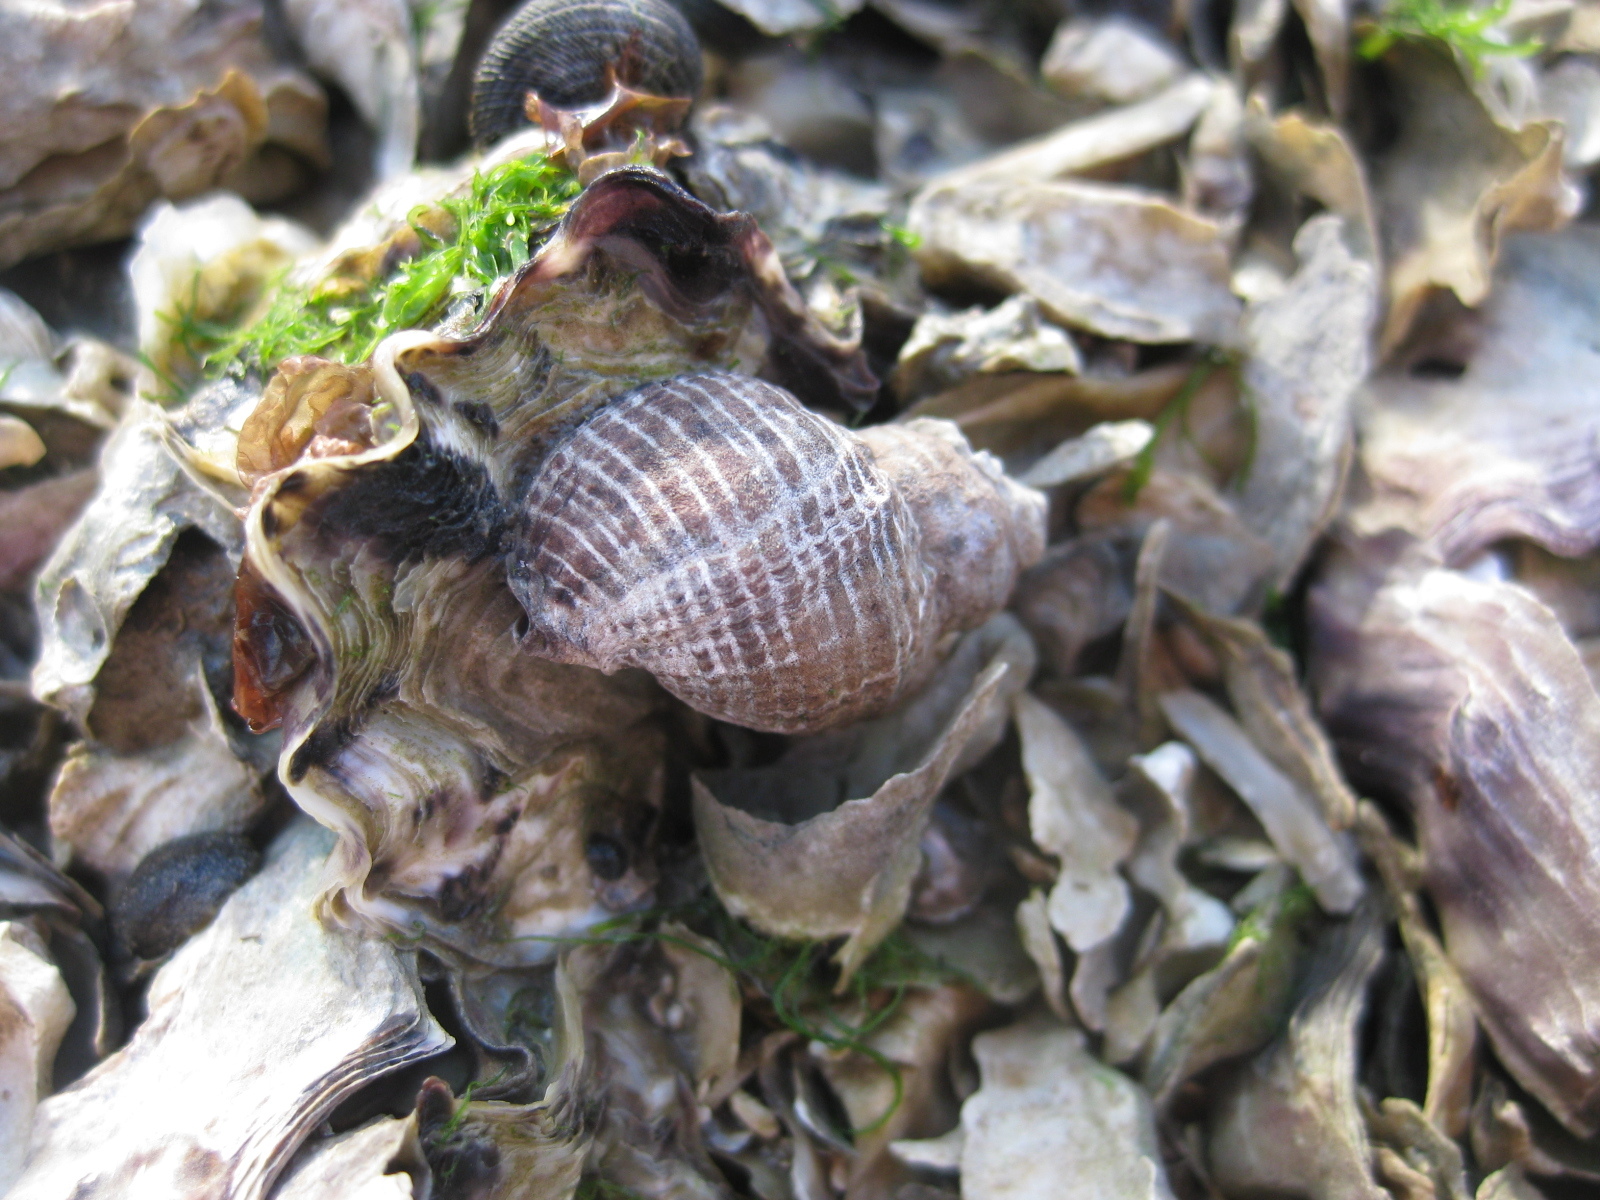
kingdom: Animalia
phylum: Mollusca
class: Gastropoda
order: Neogastropoda
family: Muricidae
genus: Haustrum
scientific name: Haustrum albomarginatum
